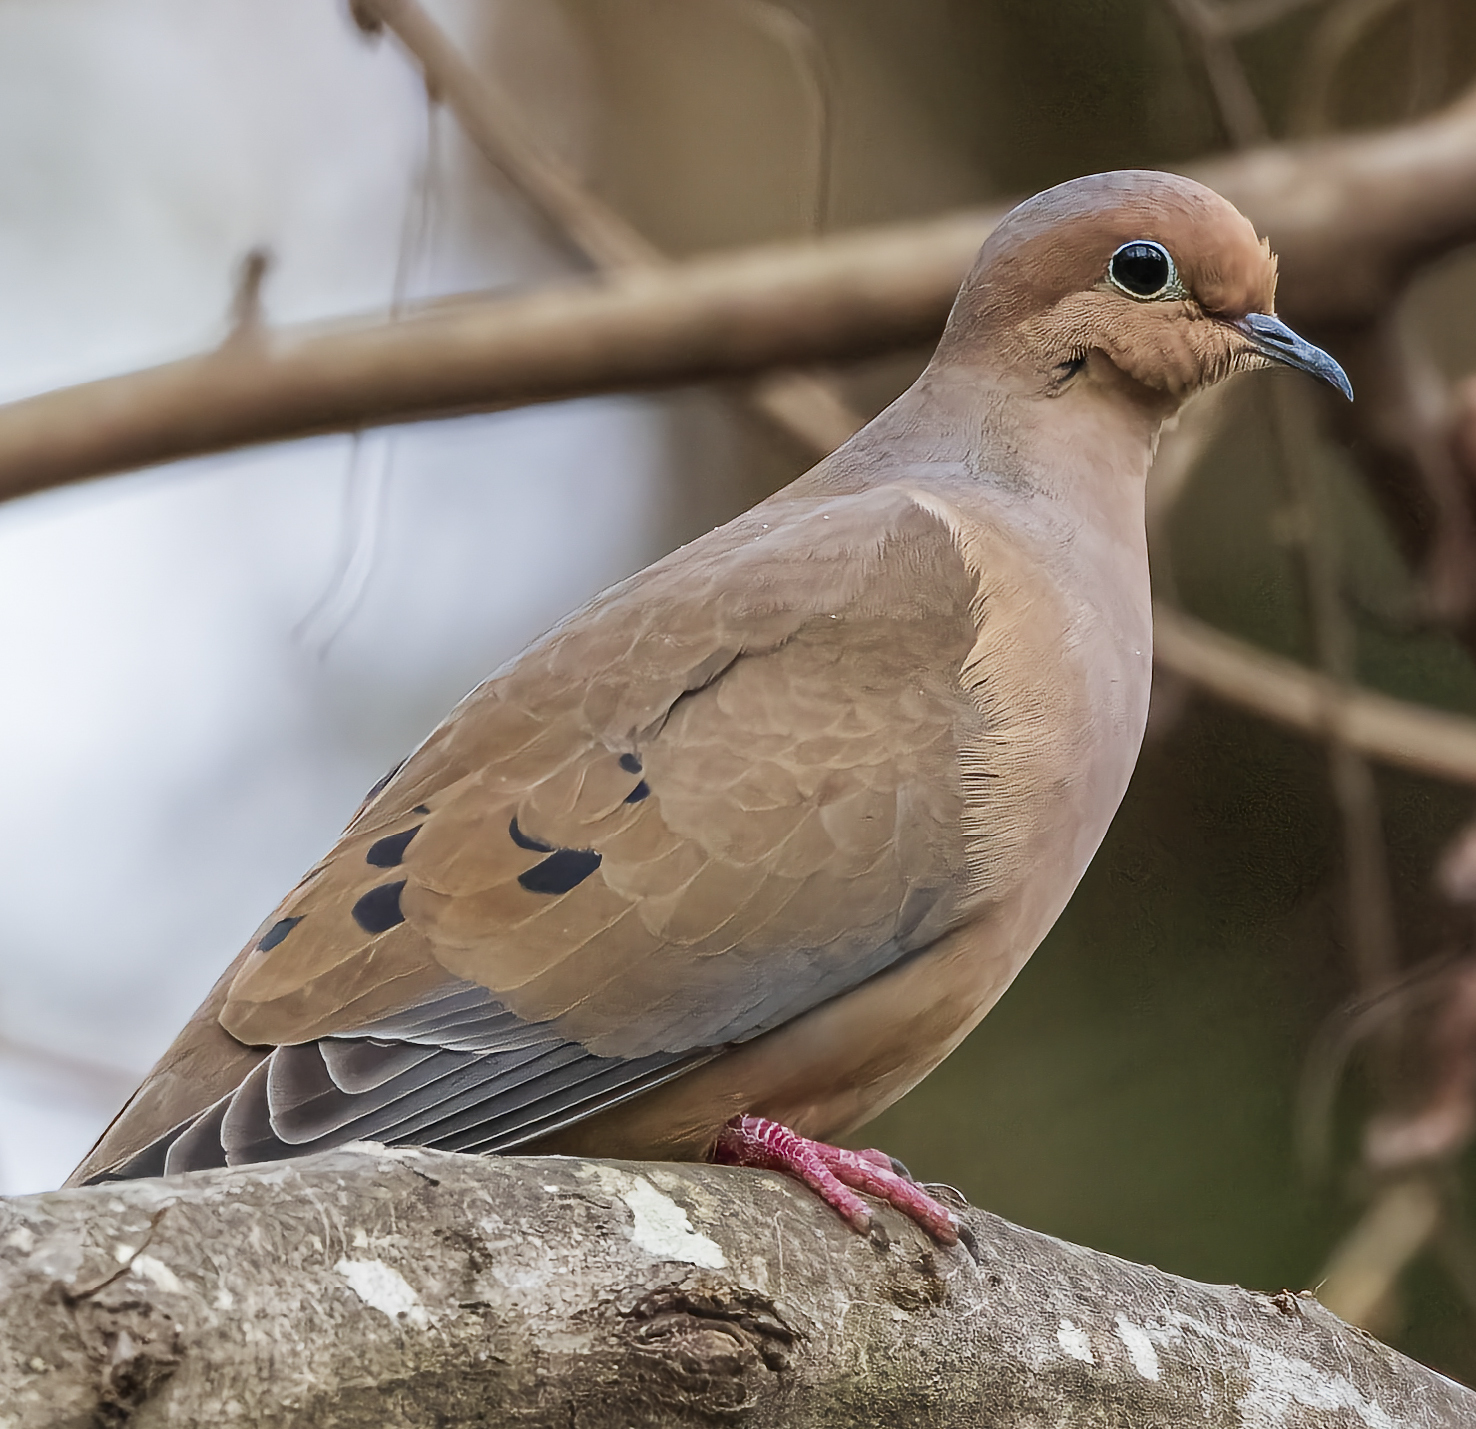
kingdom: Animalia
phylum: Chordata
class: Aves
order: Columbiformes
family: Columbidae
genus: Zenaida
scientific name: Zenaida macroura
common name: Mourning dove
